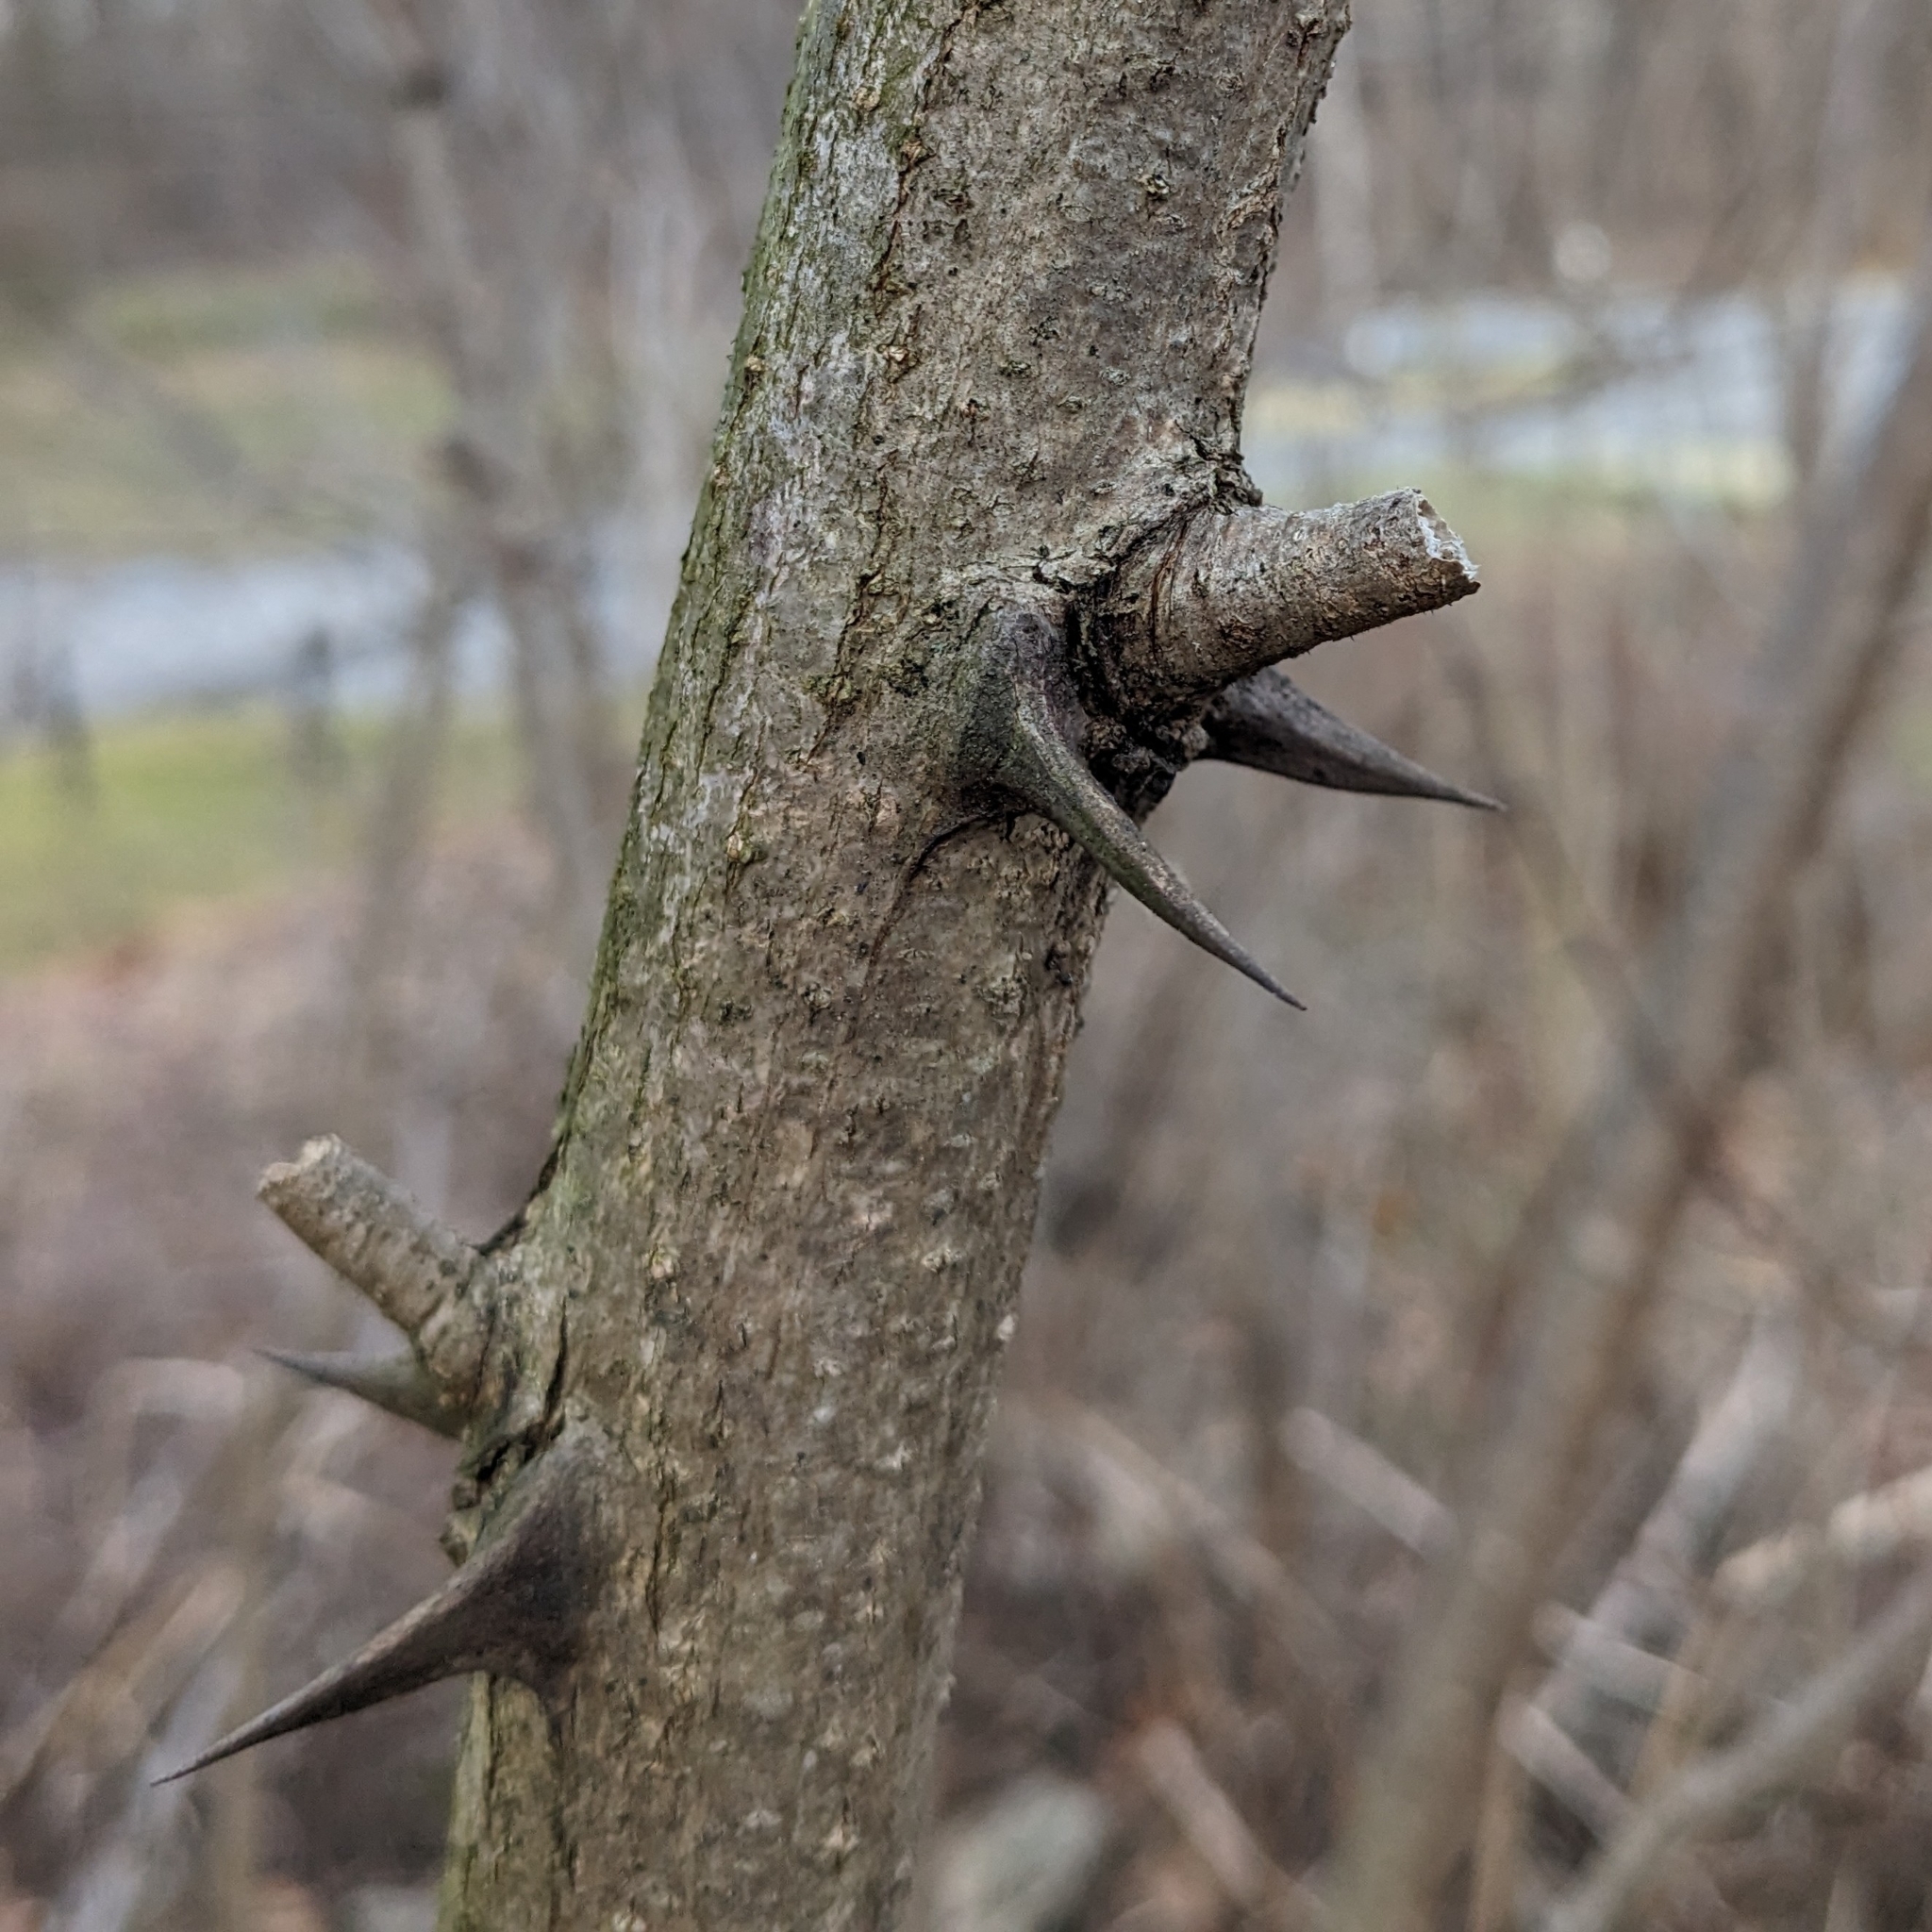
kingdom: Plantae
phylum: Tracheophyta
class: Magnoliopsida
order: Fabales
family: Fabaceae
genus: Robinia
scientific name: Robinia pseudoacacia
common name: Black locust
